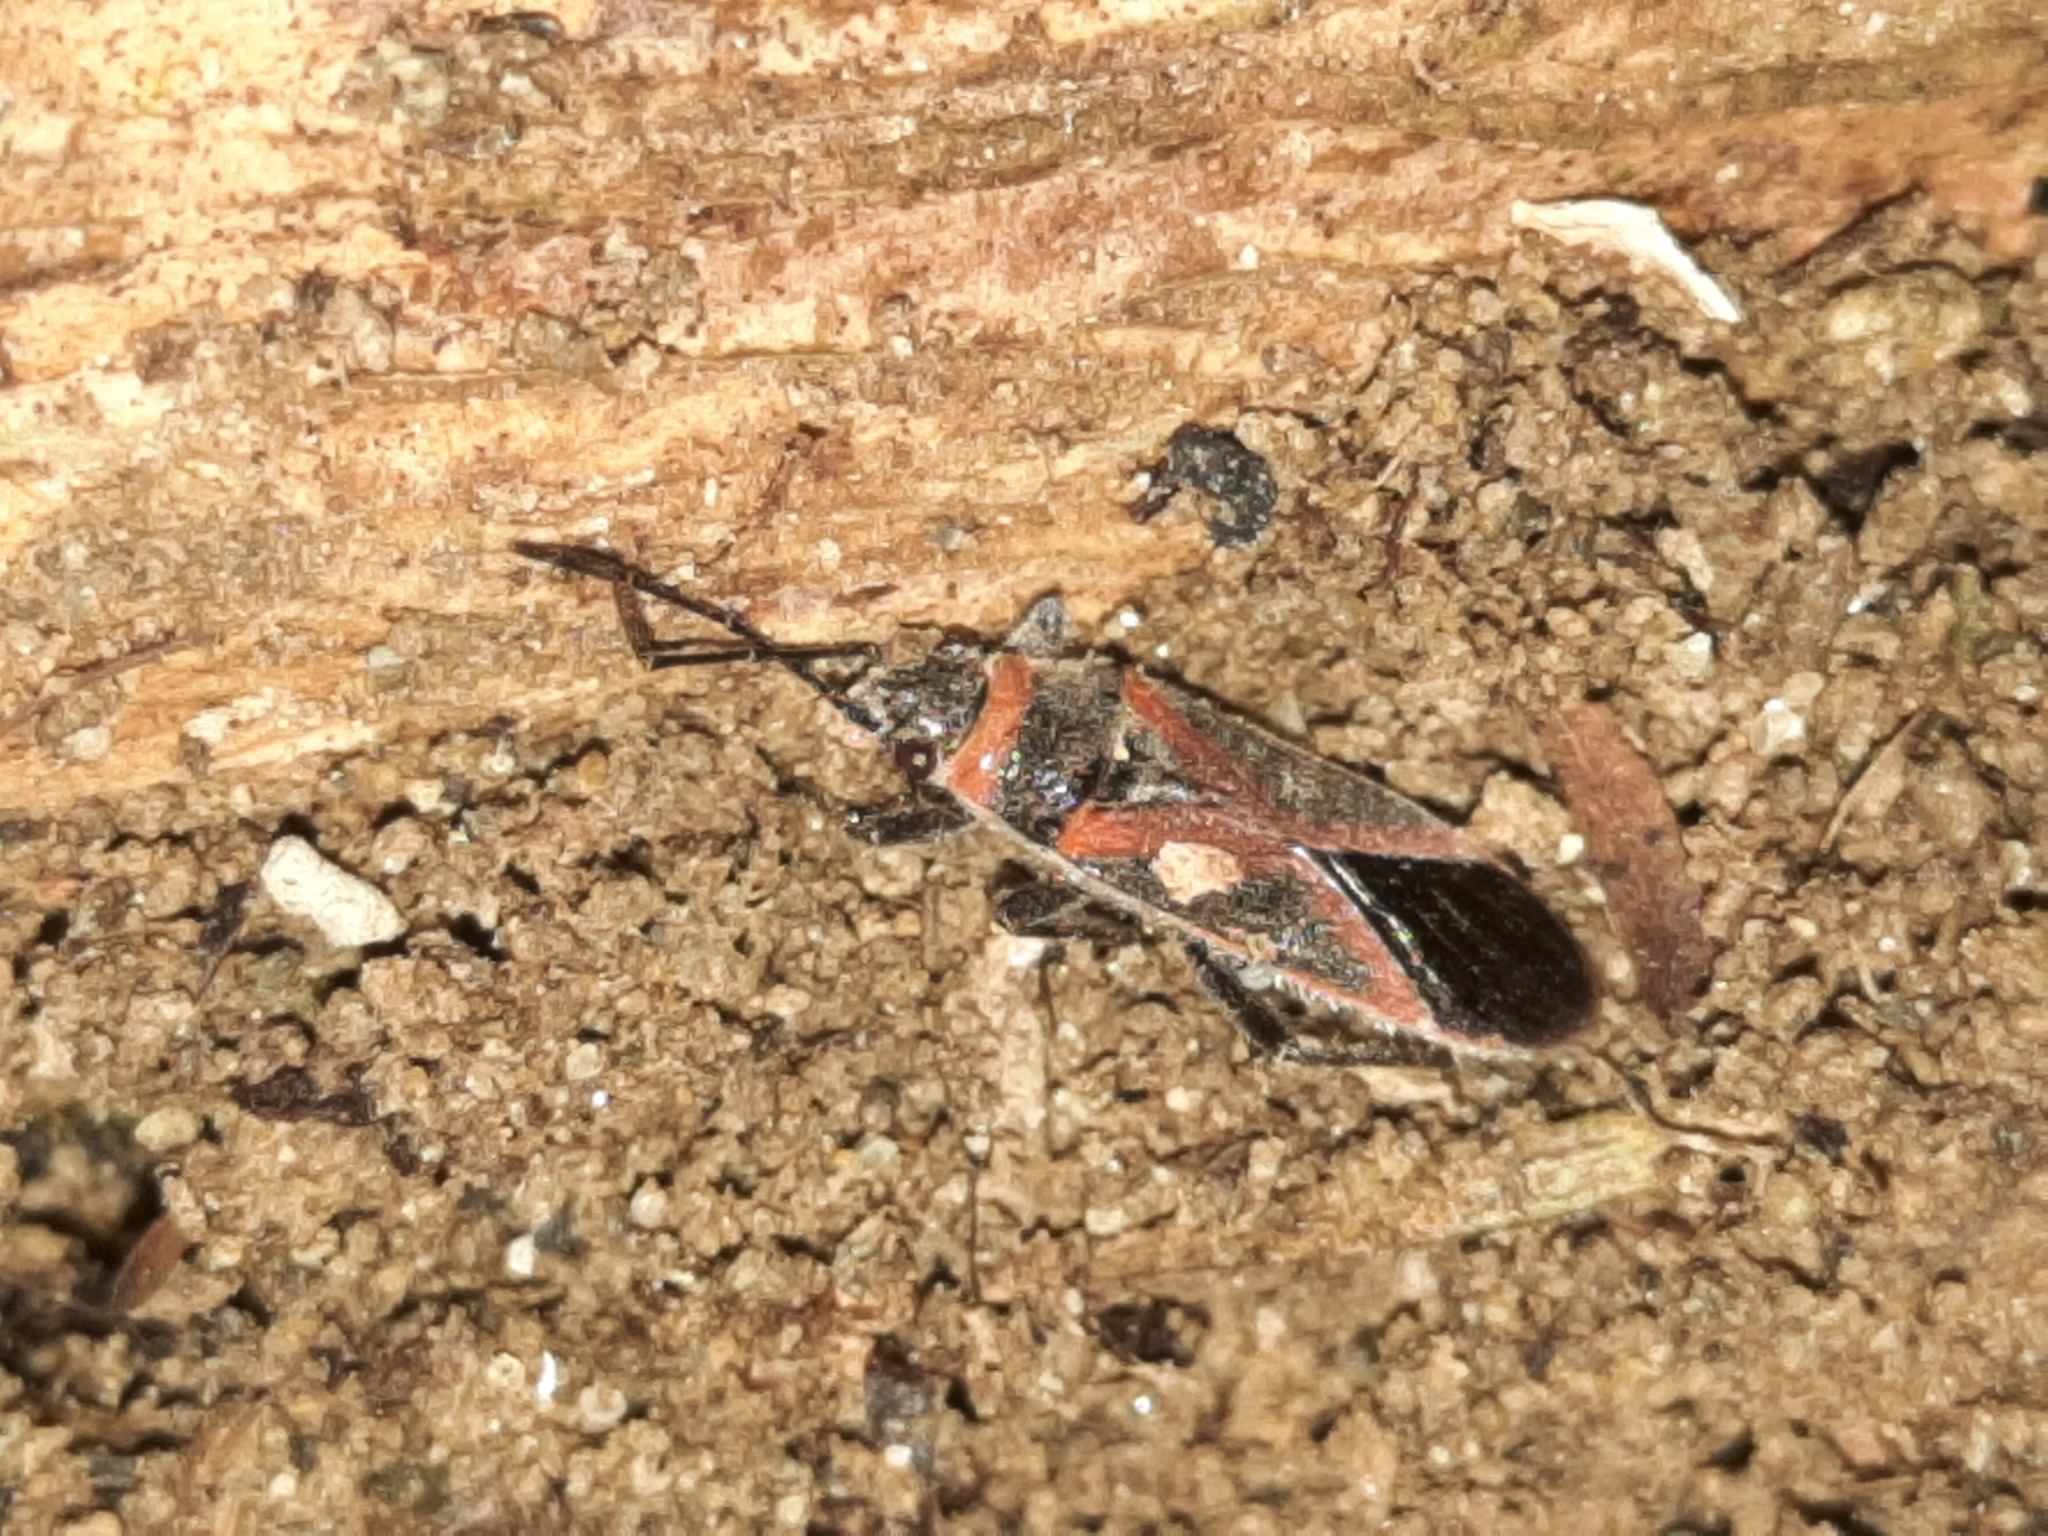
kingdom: Animalia
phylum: Arthropoda
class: Insecta
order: Hemiptera
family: Lygaeidae
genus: Arocatus
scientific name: Arocatus rusticus
